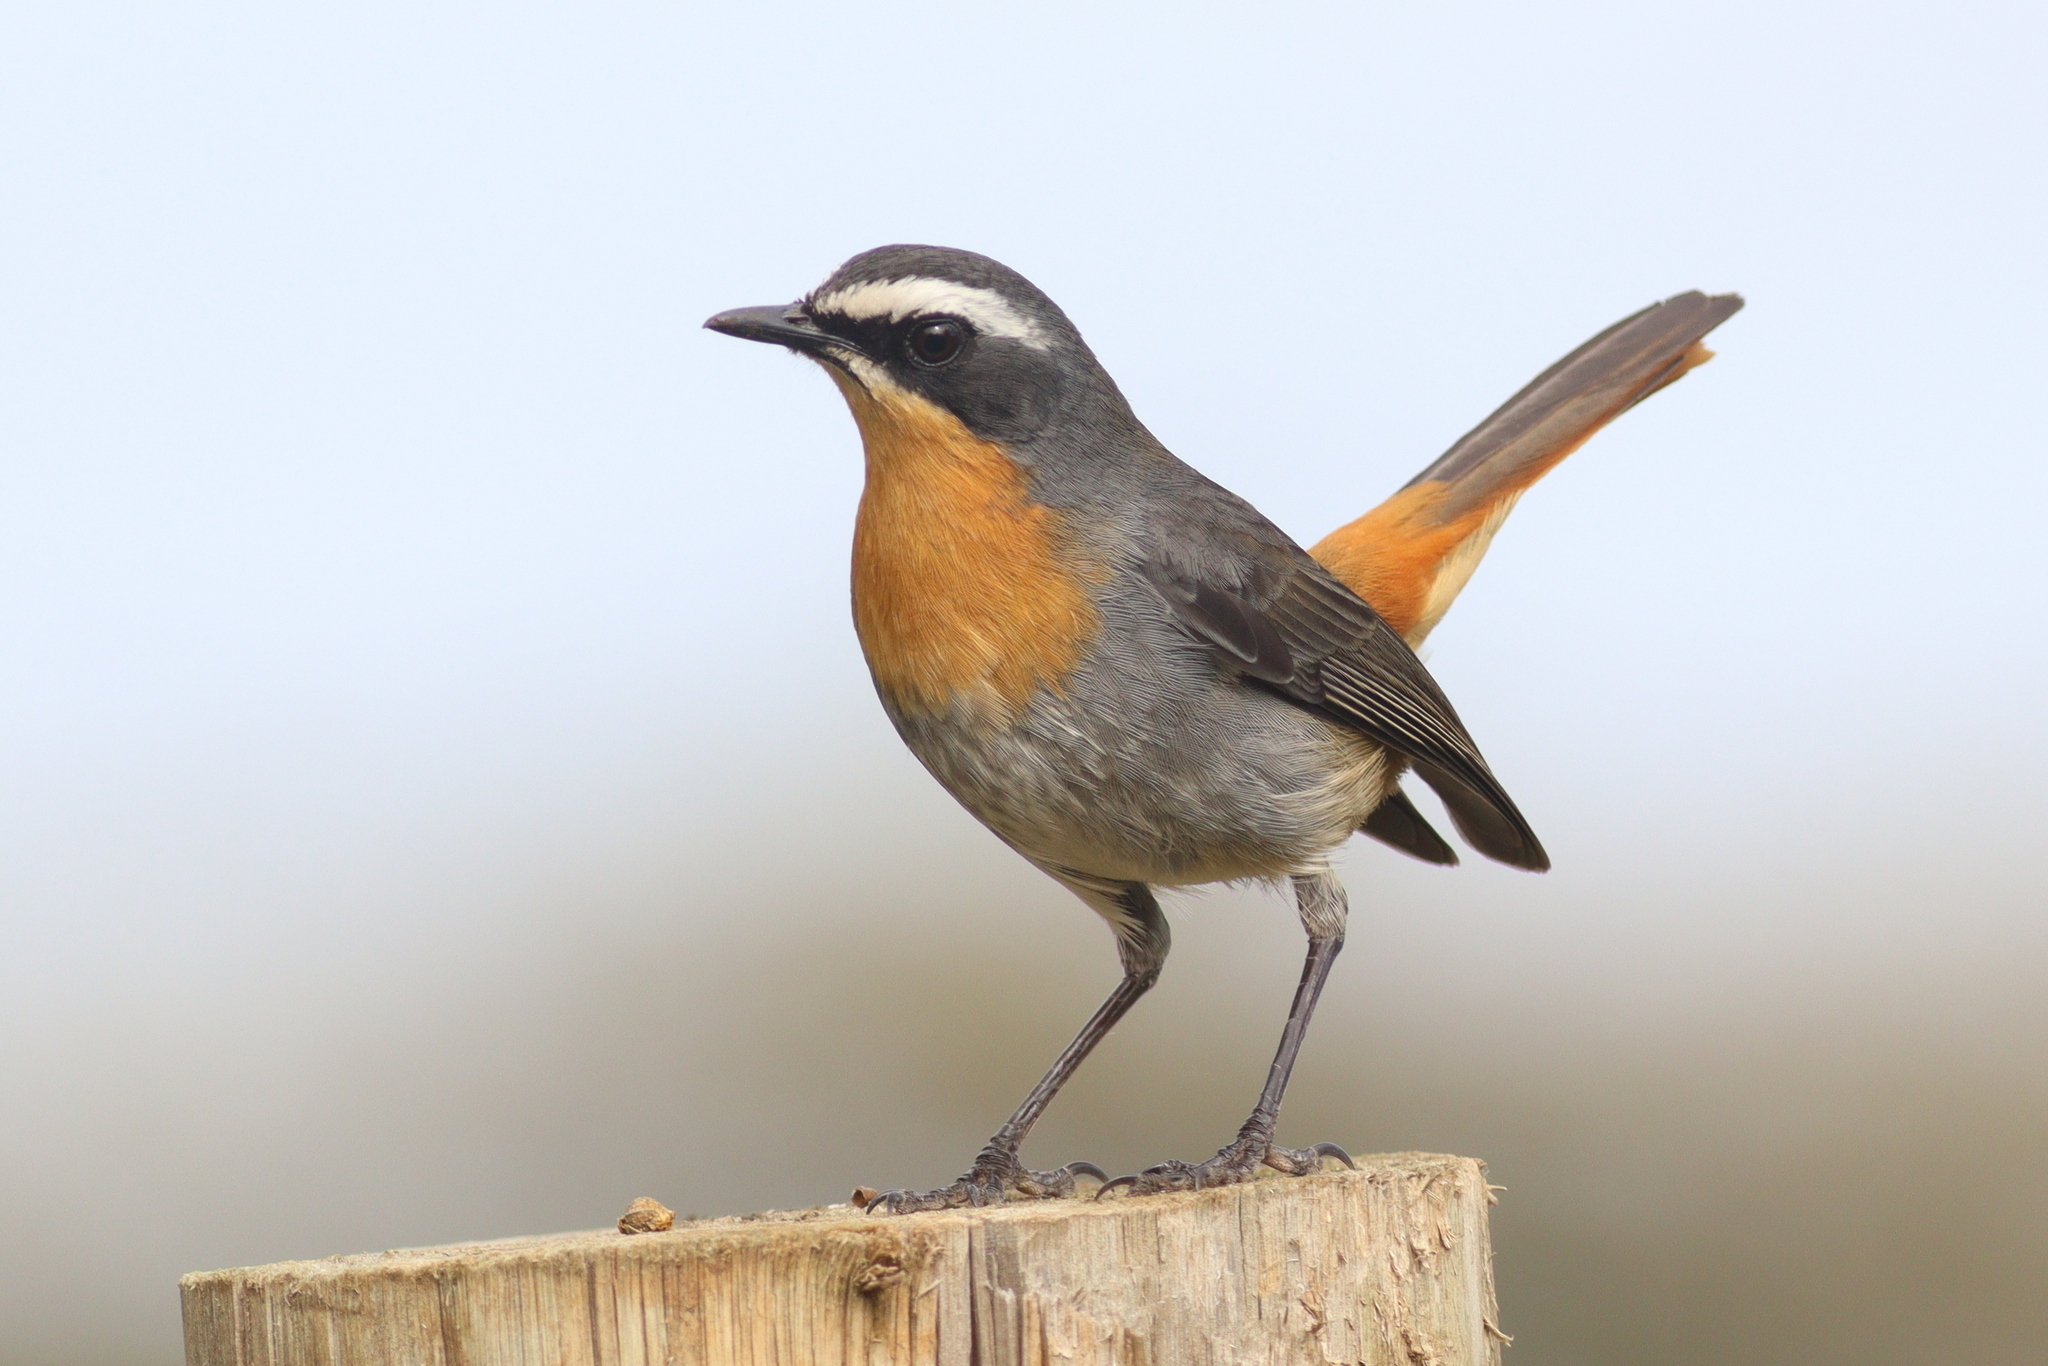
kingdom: Animalia
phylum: Chordata
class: Aves
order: Passeriformes
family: Muscicapidae
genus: Cossypha
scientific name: Cossypha caffra
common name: Cape robin-chat
